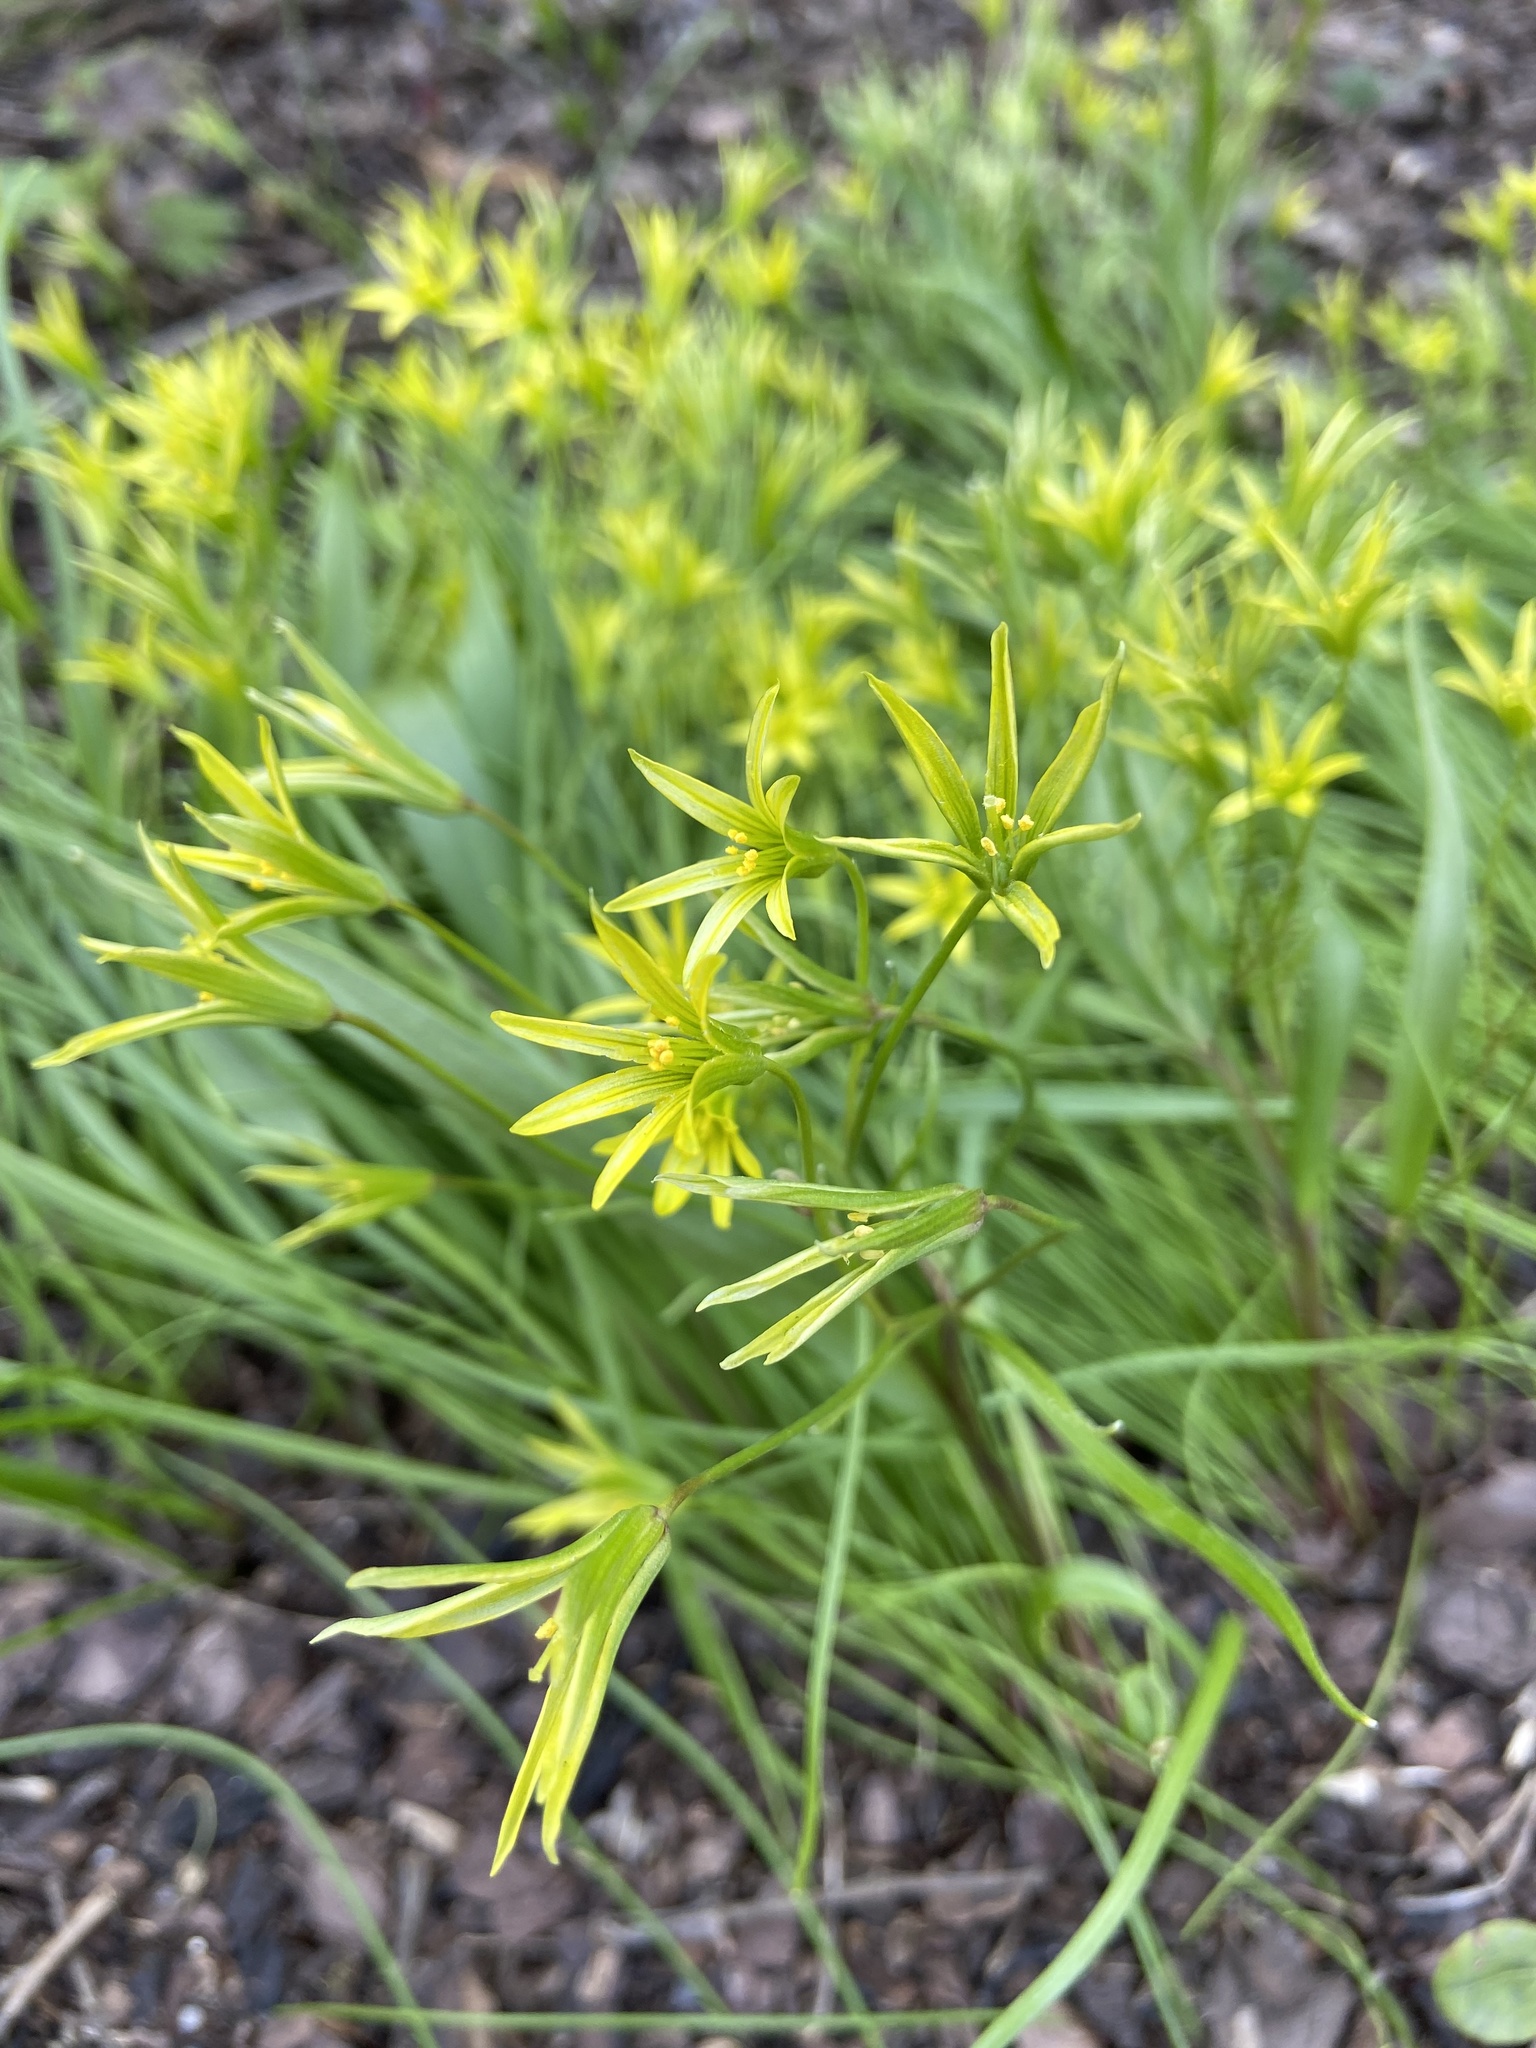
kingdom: Plantae
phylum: Tracheophyta
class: Liliopsida
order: Liliales
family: Liliaceae
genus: Gagea
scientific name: Gagea minima
